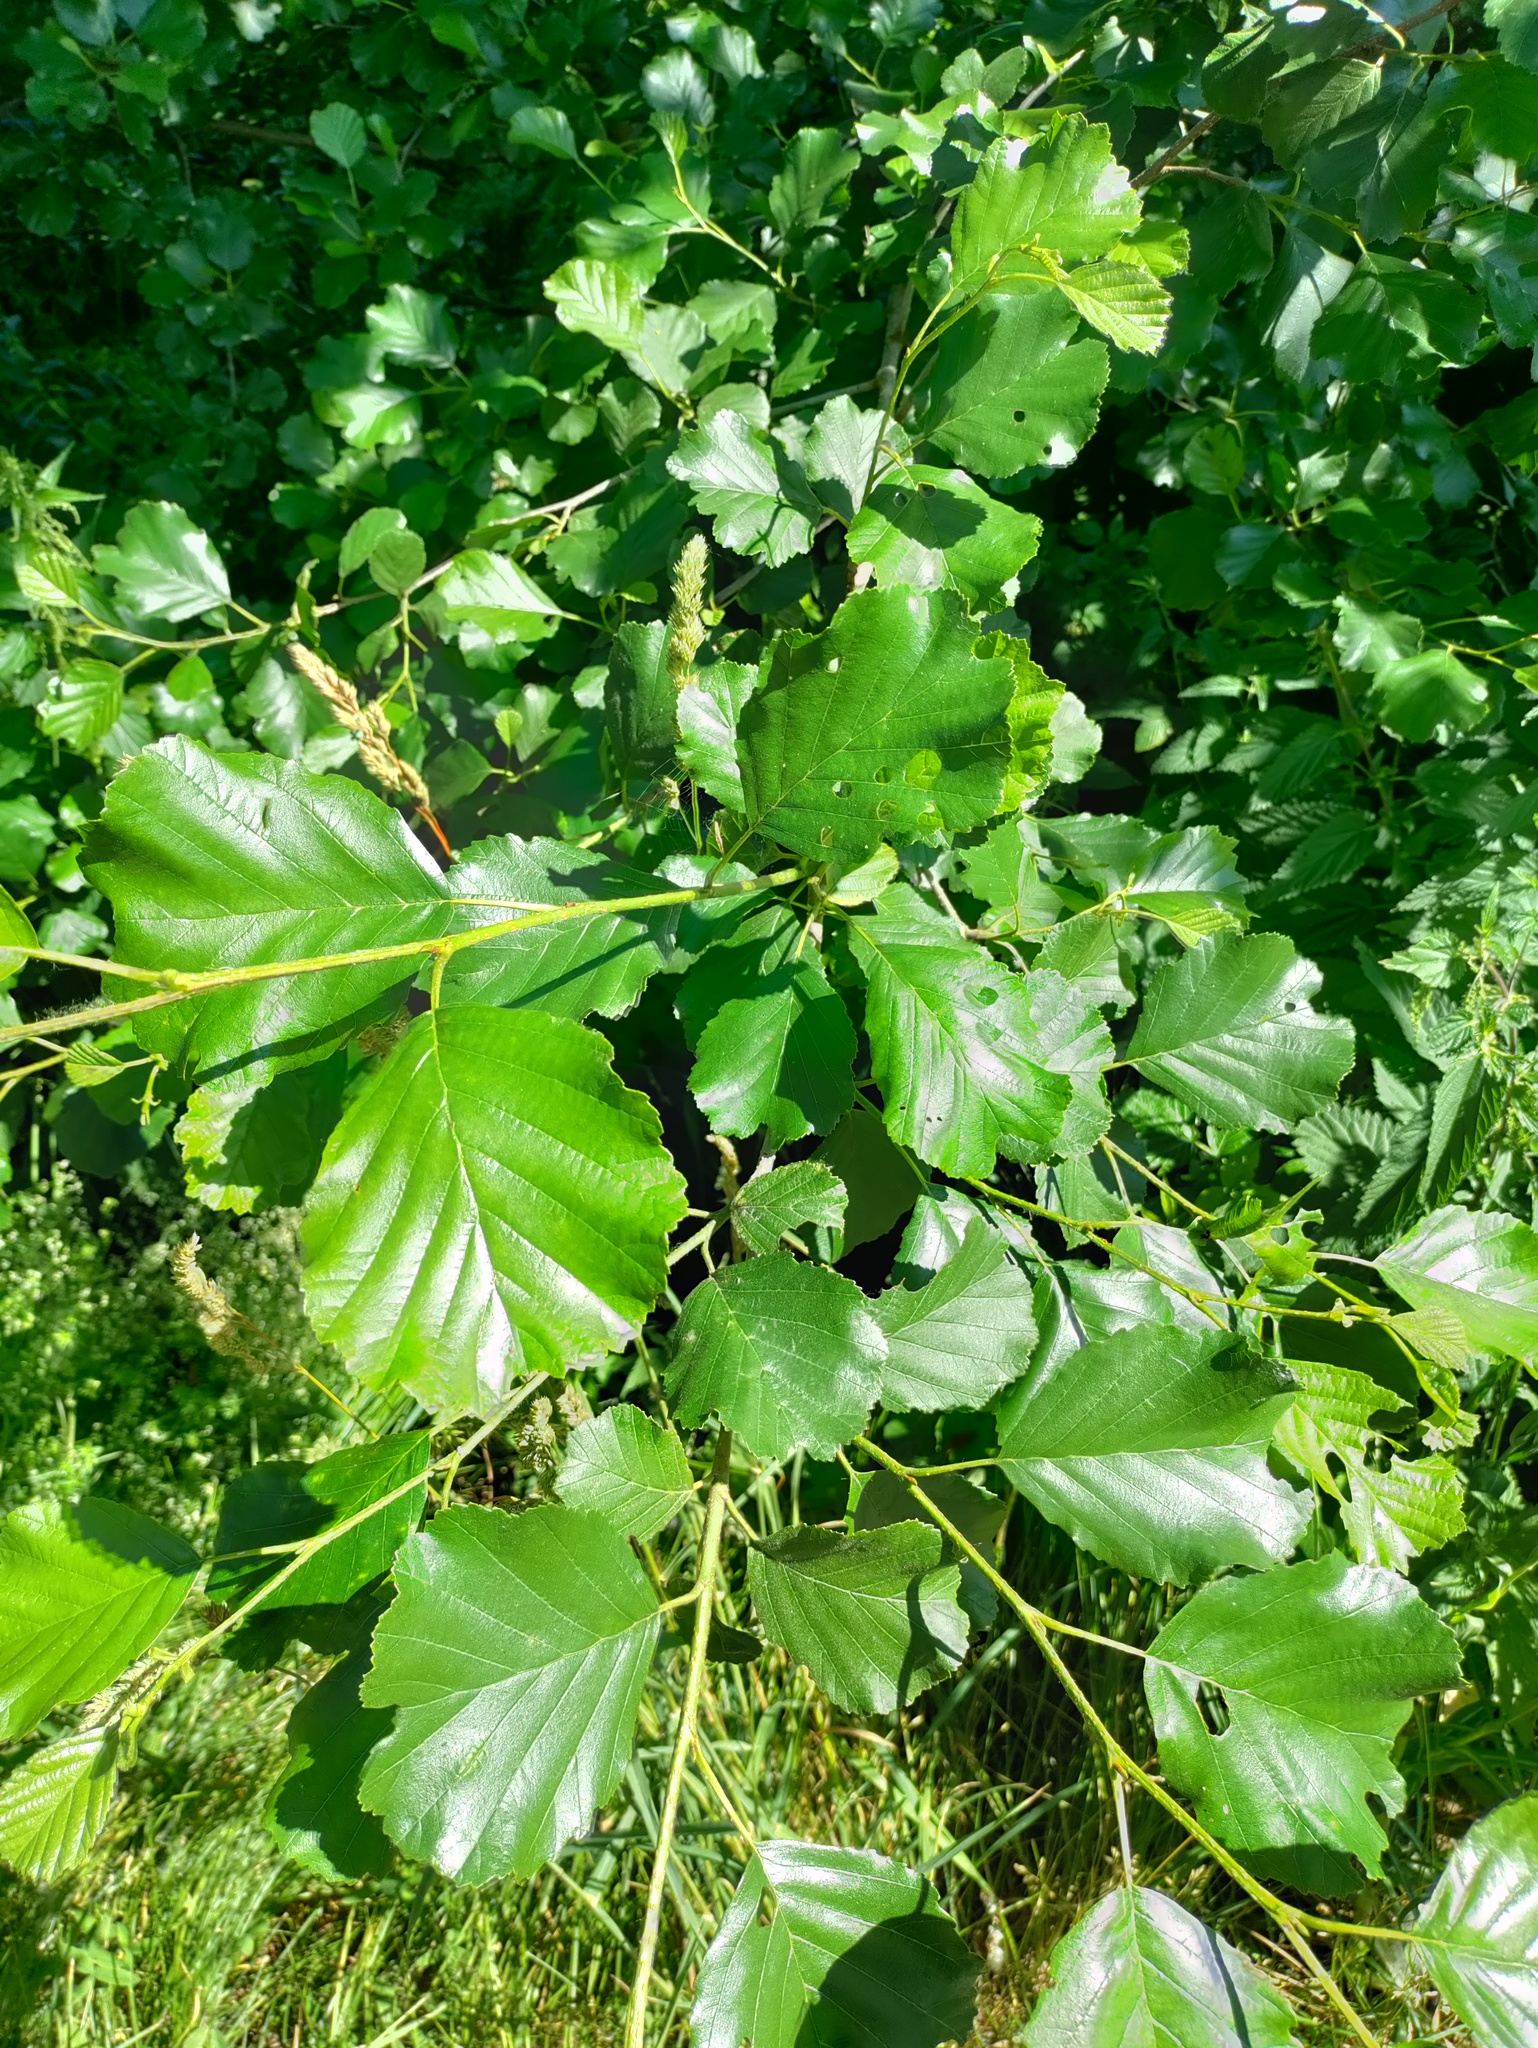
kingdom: Plantae
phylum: Tracheophyta
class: Magnoliopsida
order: Fagales
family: Betulaceae
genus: Alnus
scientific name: Alnus glutinosa
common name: Black alder
